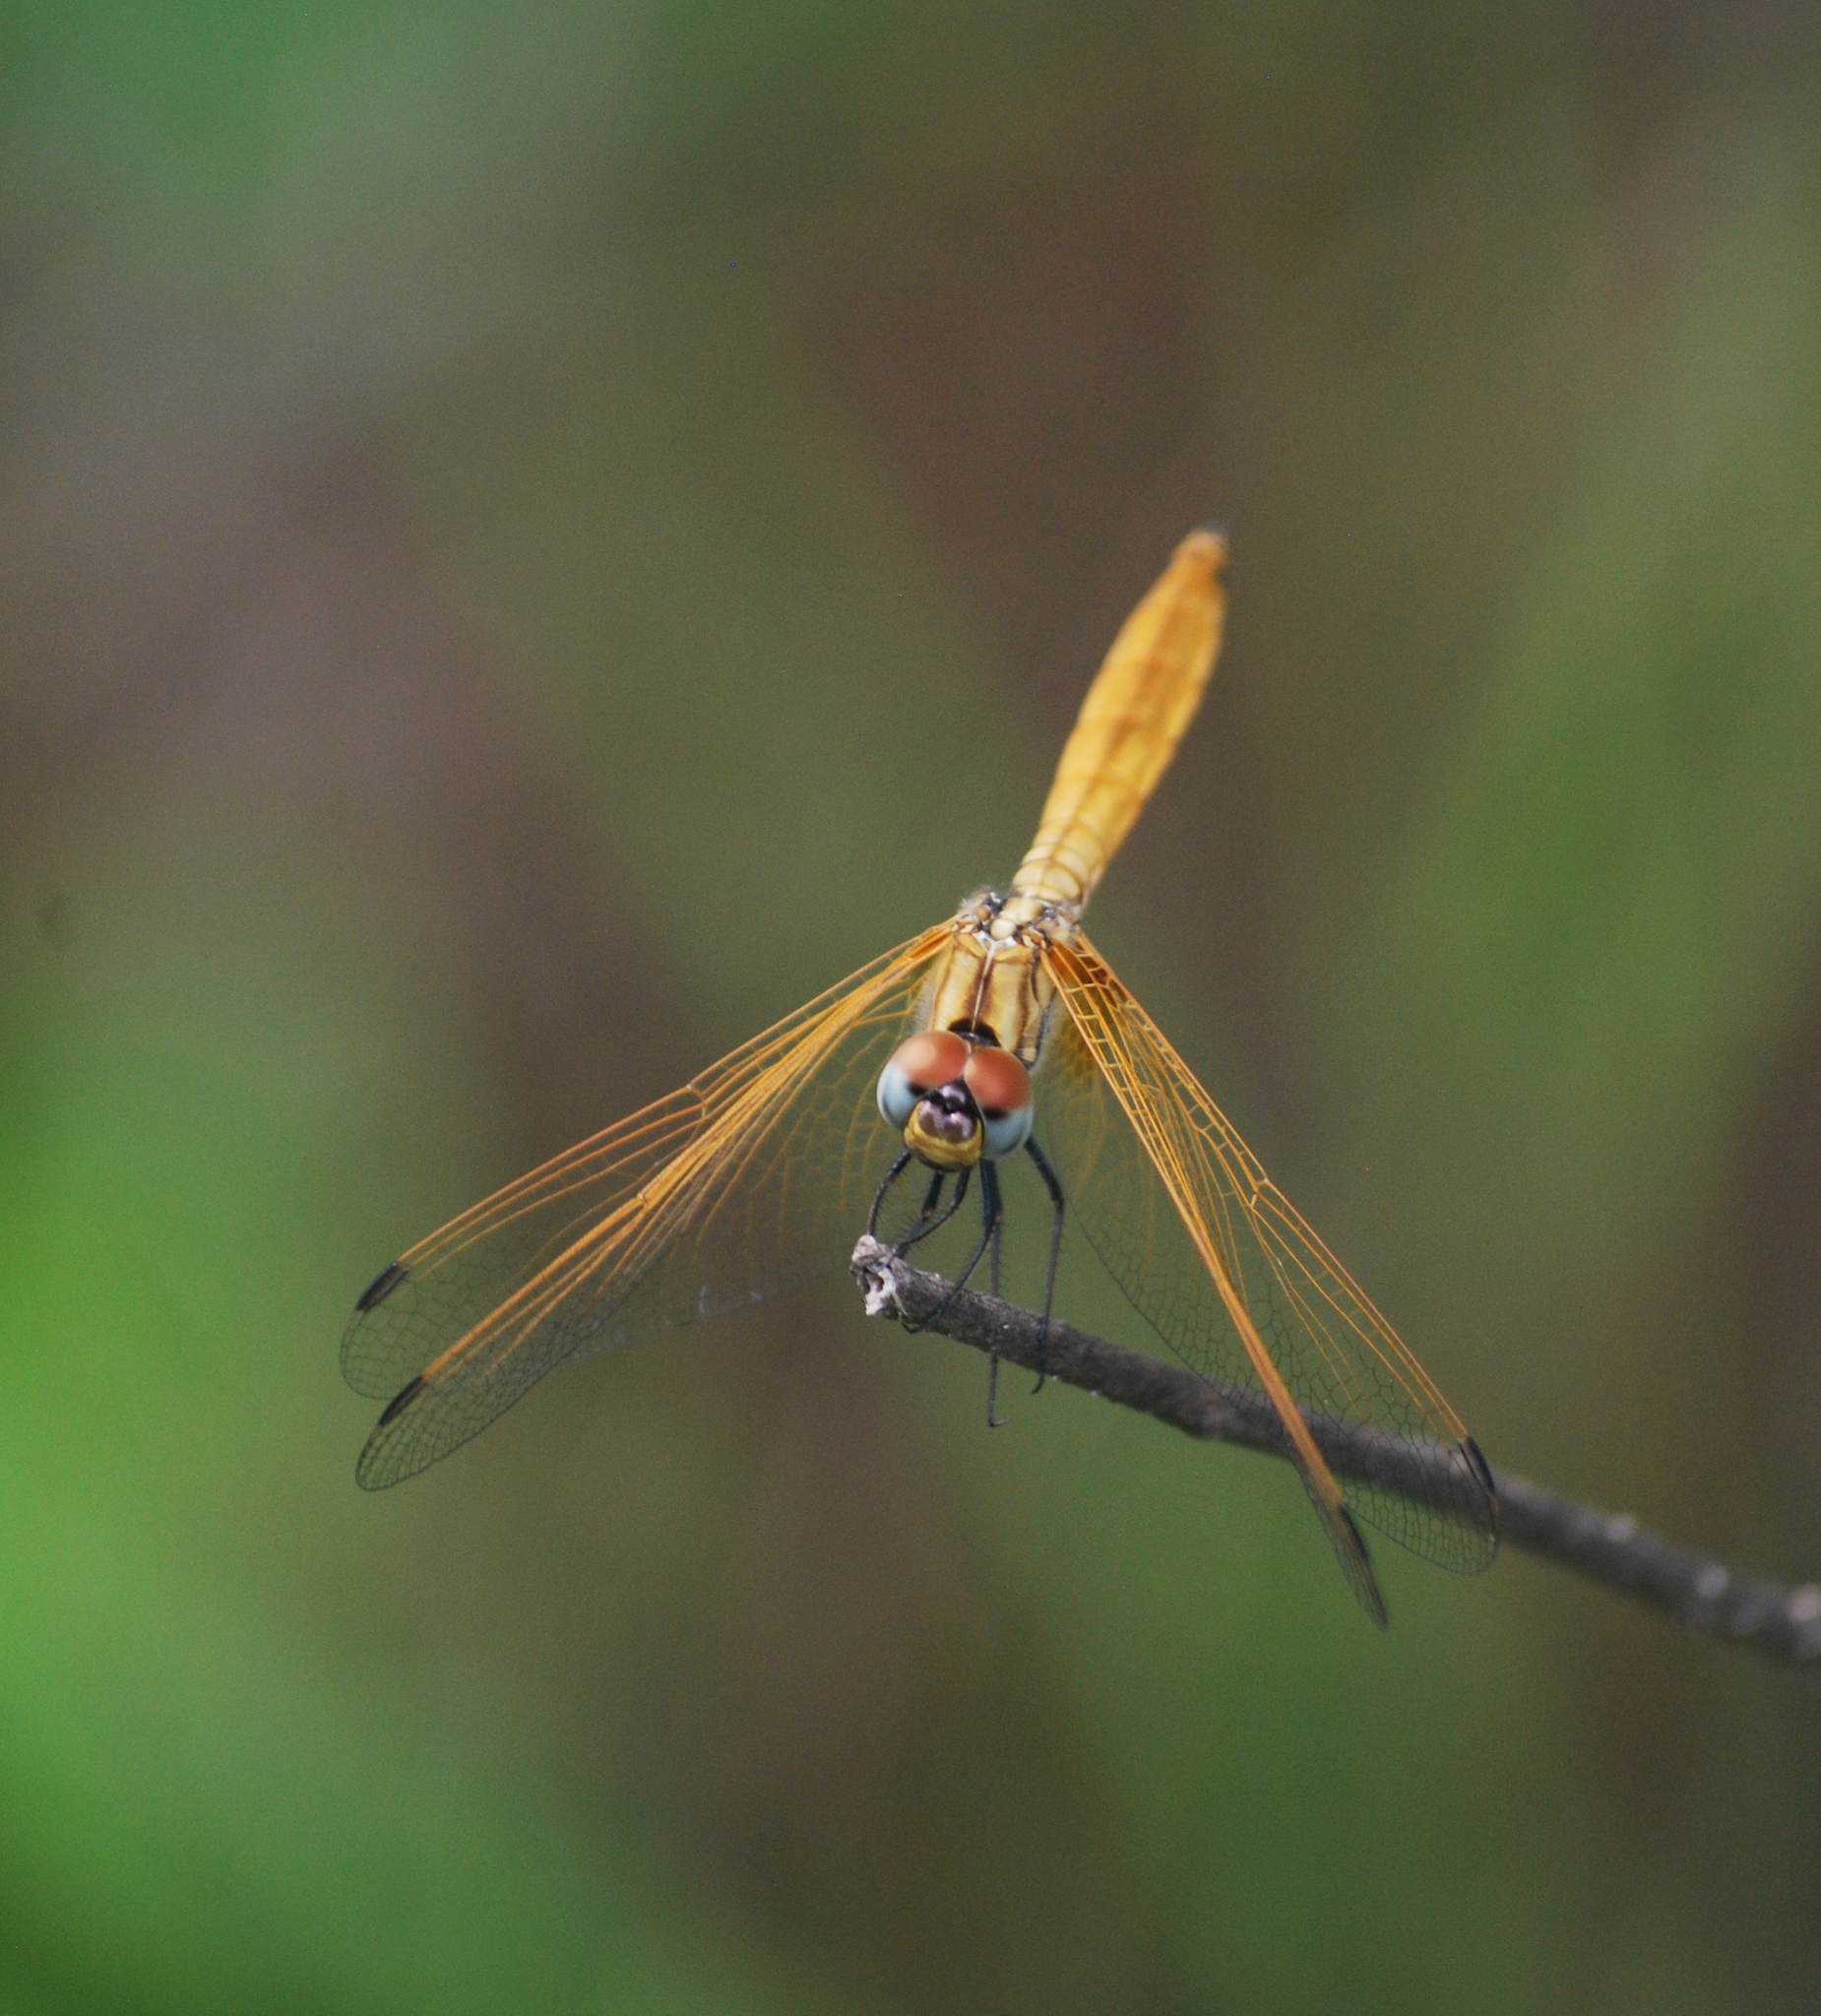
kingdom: Animalia
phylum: Arthropoda
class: Insecta
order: Odonata
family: Libellulidae
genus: Trithemis
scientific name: Trithemis aurora
